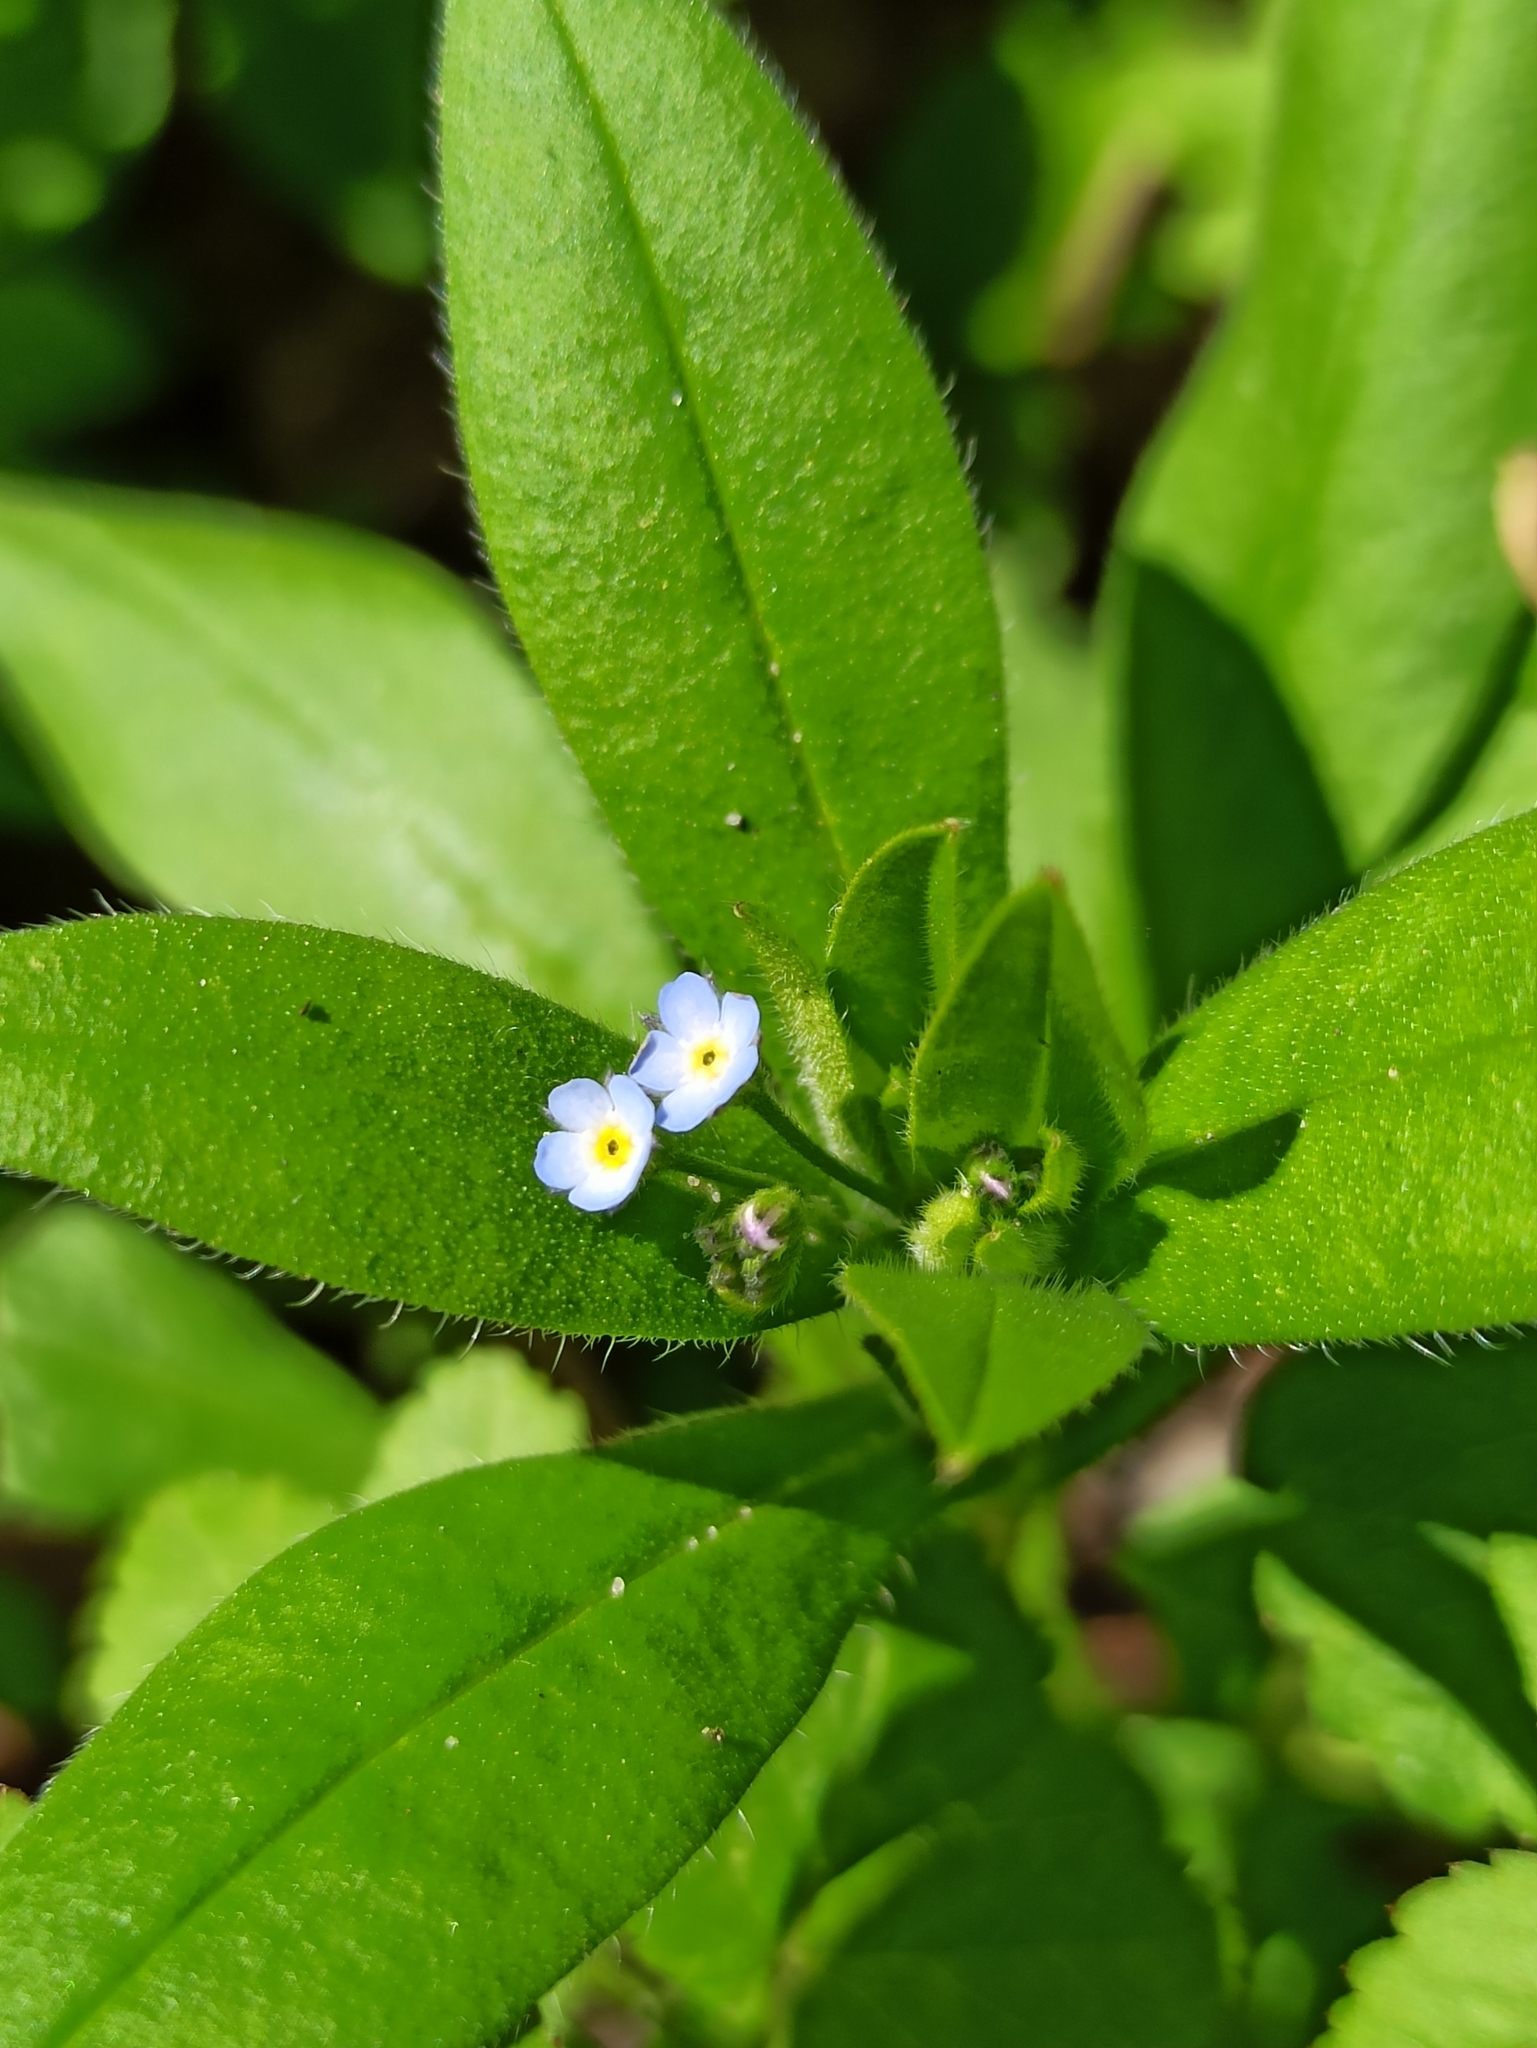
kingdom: Plantae
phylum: Tracheophyta
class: Magnoliopsida
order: Boraginales
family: Boraginaceae
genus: Myosotis
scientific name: Myosotis sparsiflora
